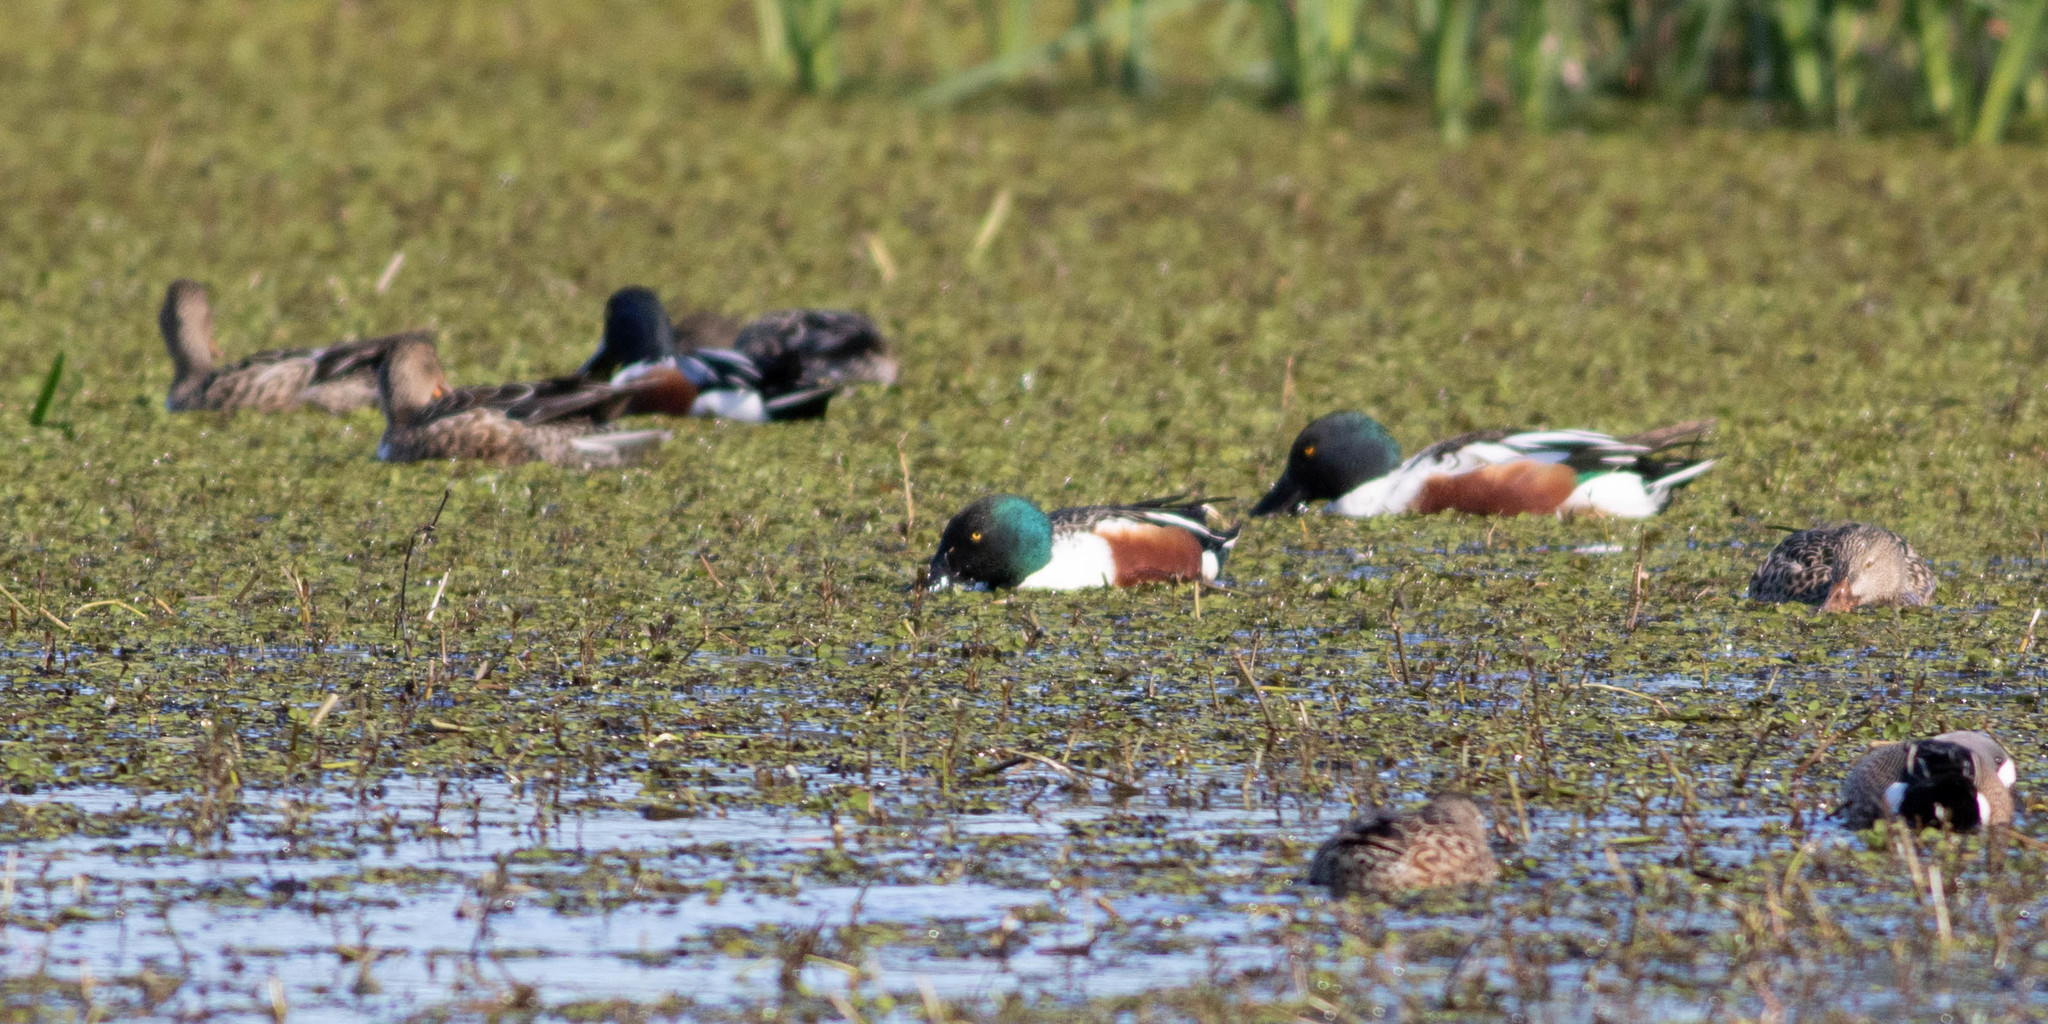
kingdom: Animalia
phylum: Chordata
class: Aves
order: Anseriformes
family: Anatidae
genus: Spatula
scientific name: Spatula clypeata
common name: Northern shoveler
